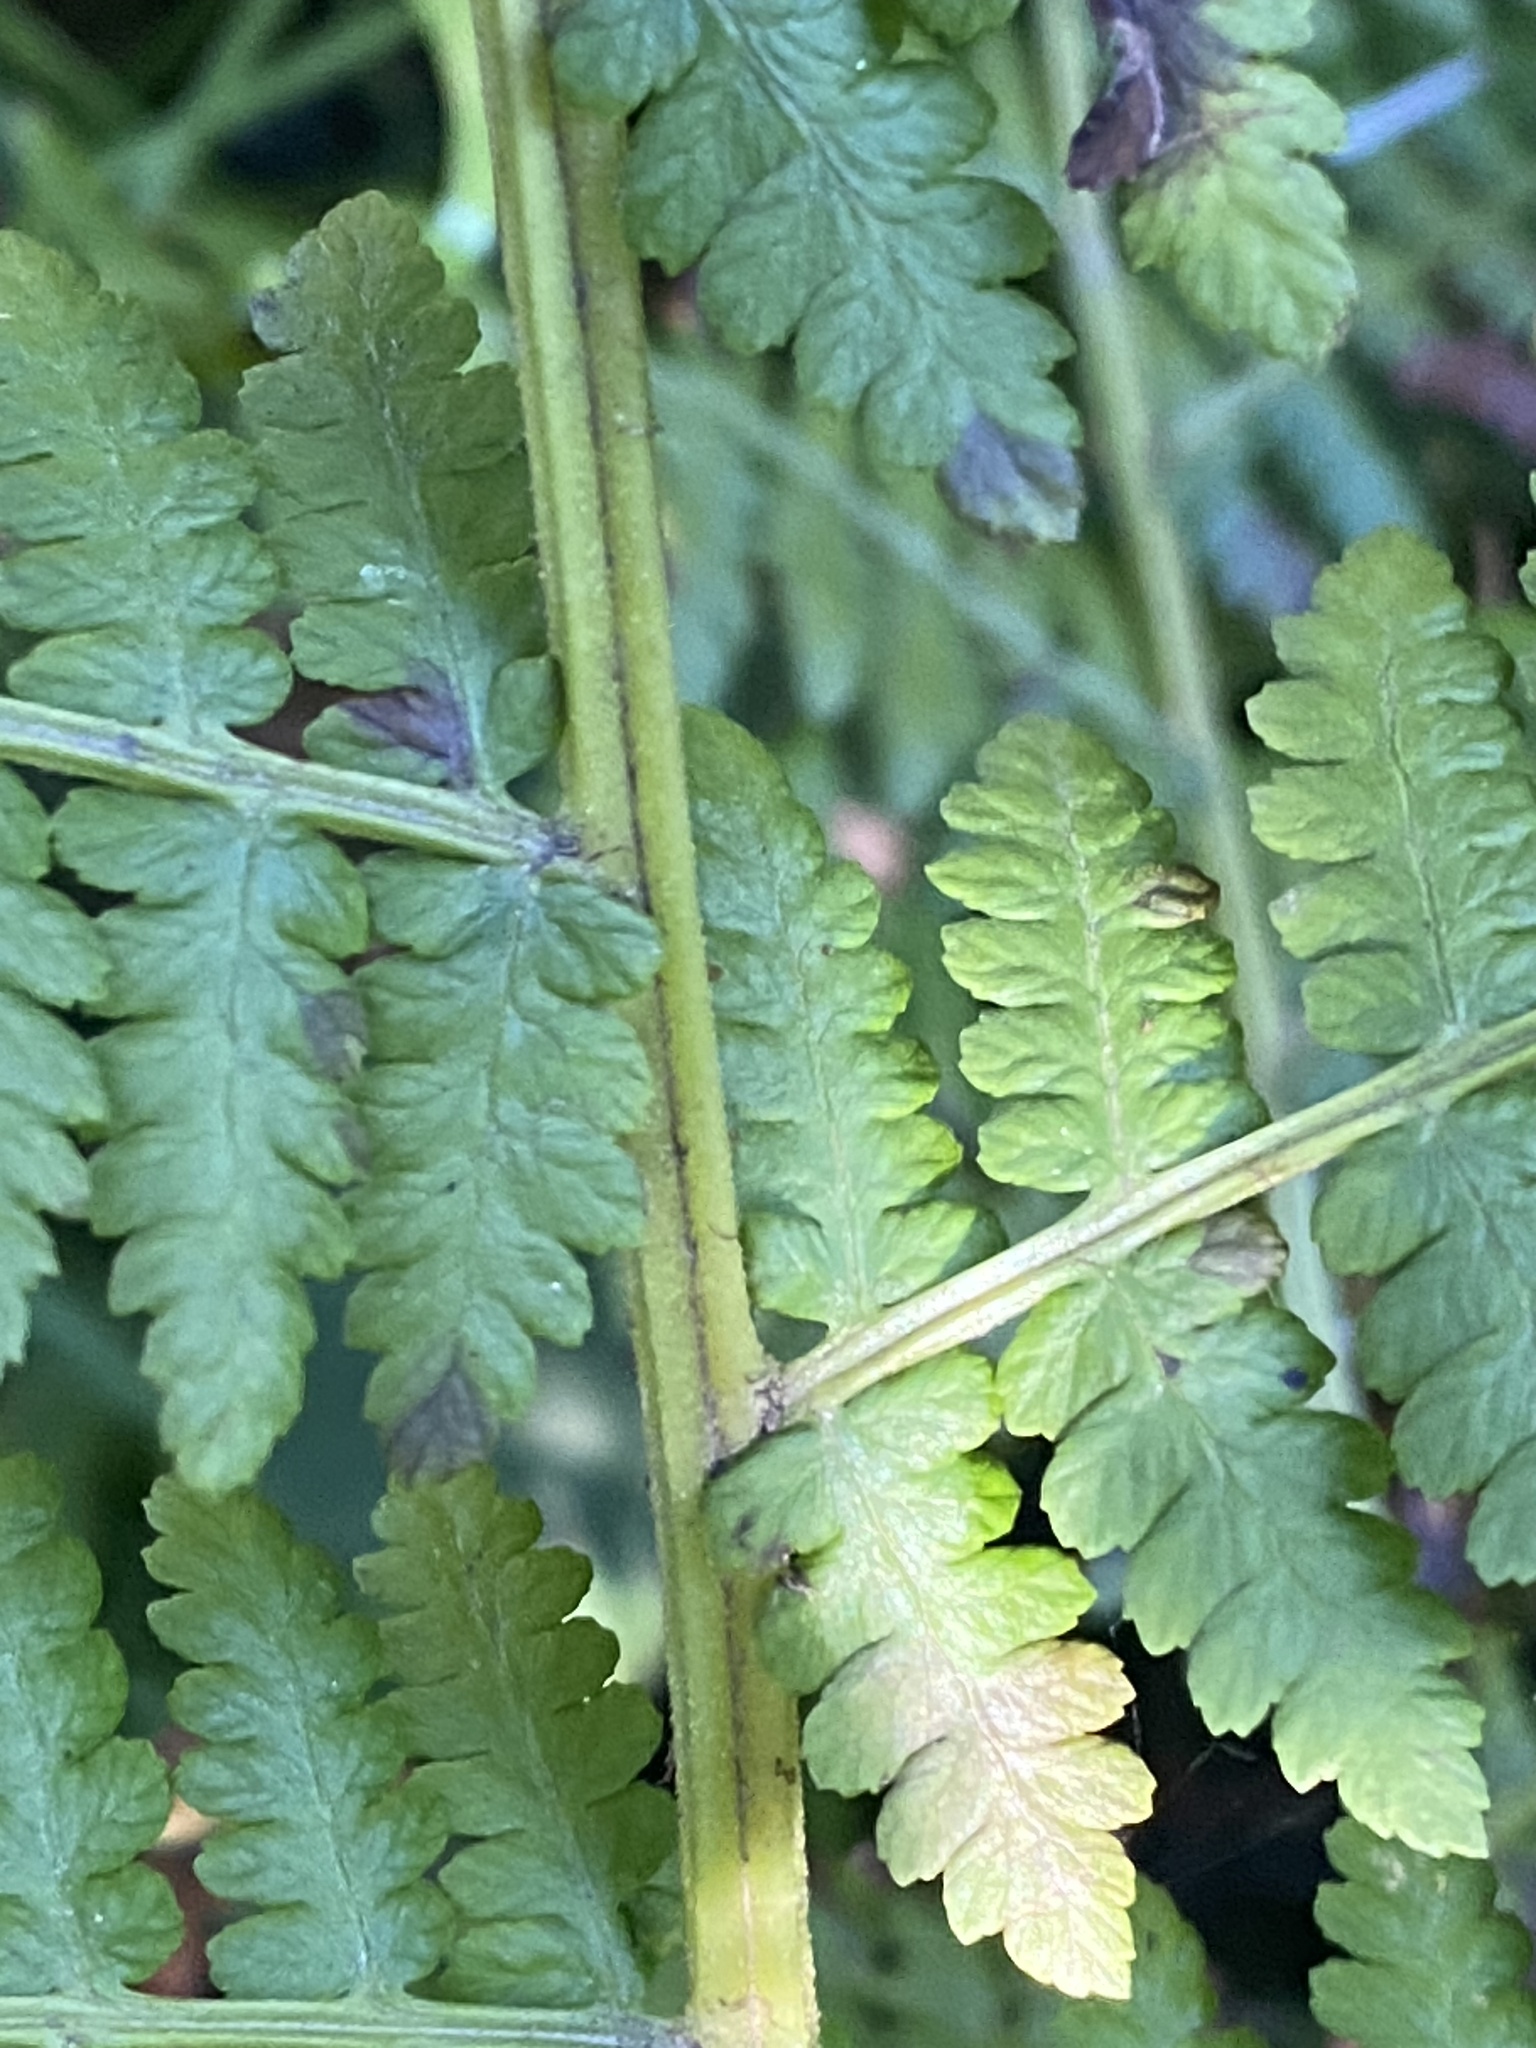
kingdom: Plantae
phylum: Tracheophyta
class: Polypodiopsida
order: Polypodiales
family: Athyriaceae
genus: Athyrium
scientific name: Athyrium cyclosorum
